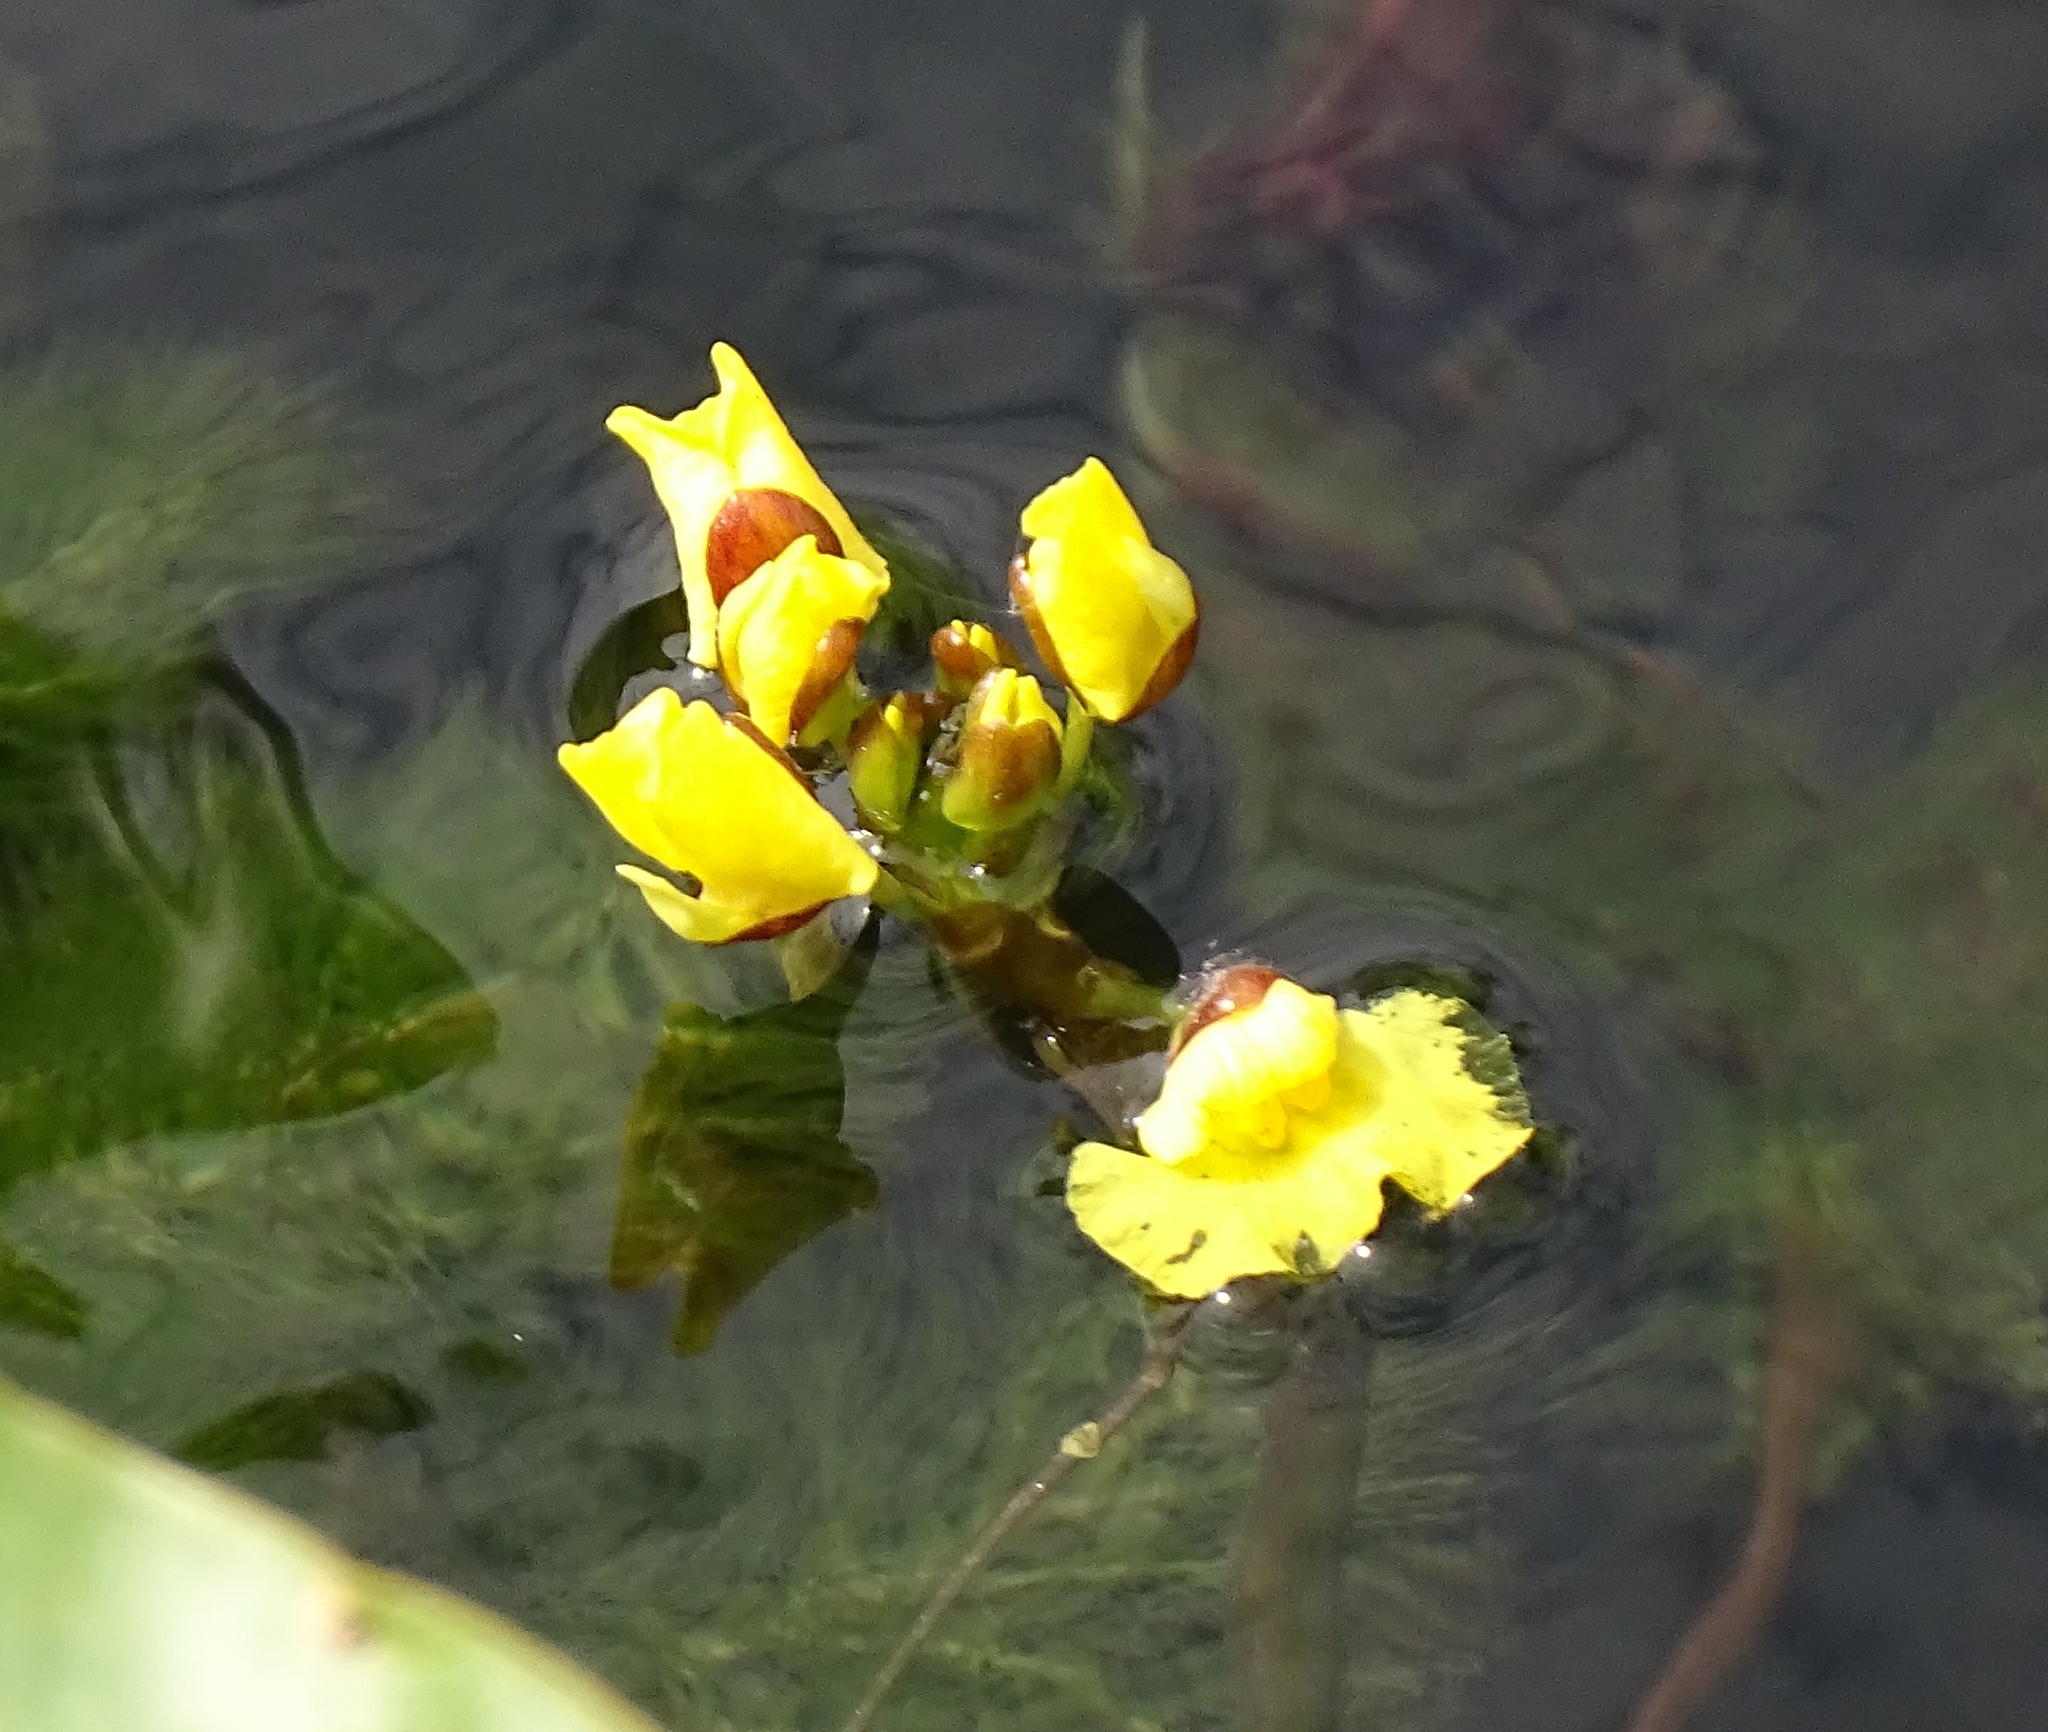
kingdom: Plantae
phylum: Tracheophyta
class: Magnoliopsida
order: Lamiales
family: Lentibulariaceae
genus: Utricularia
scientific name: Utricularia foliosa
